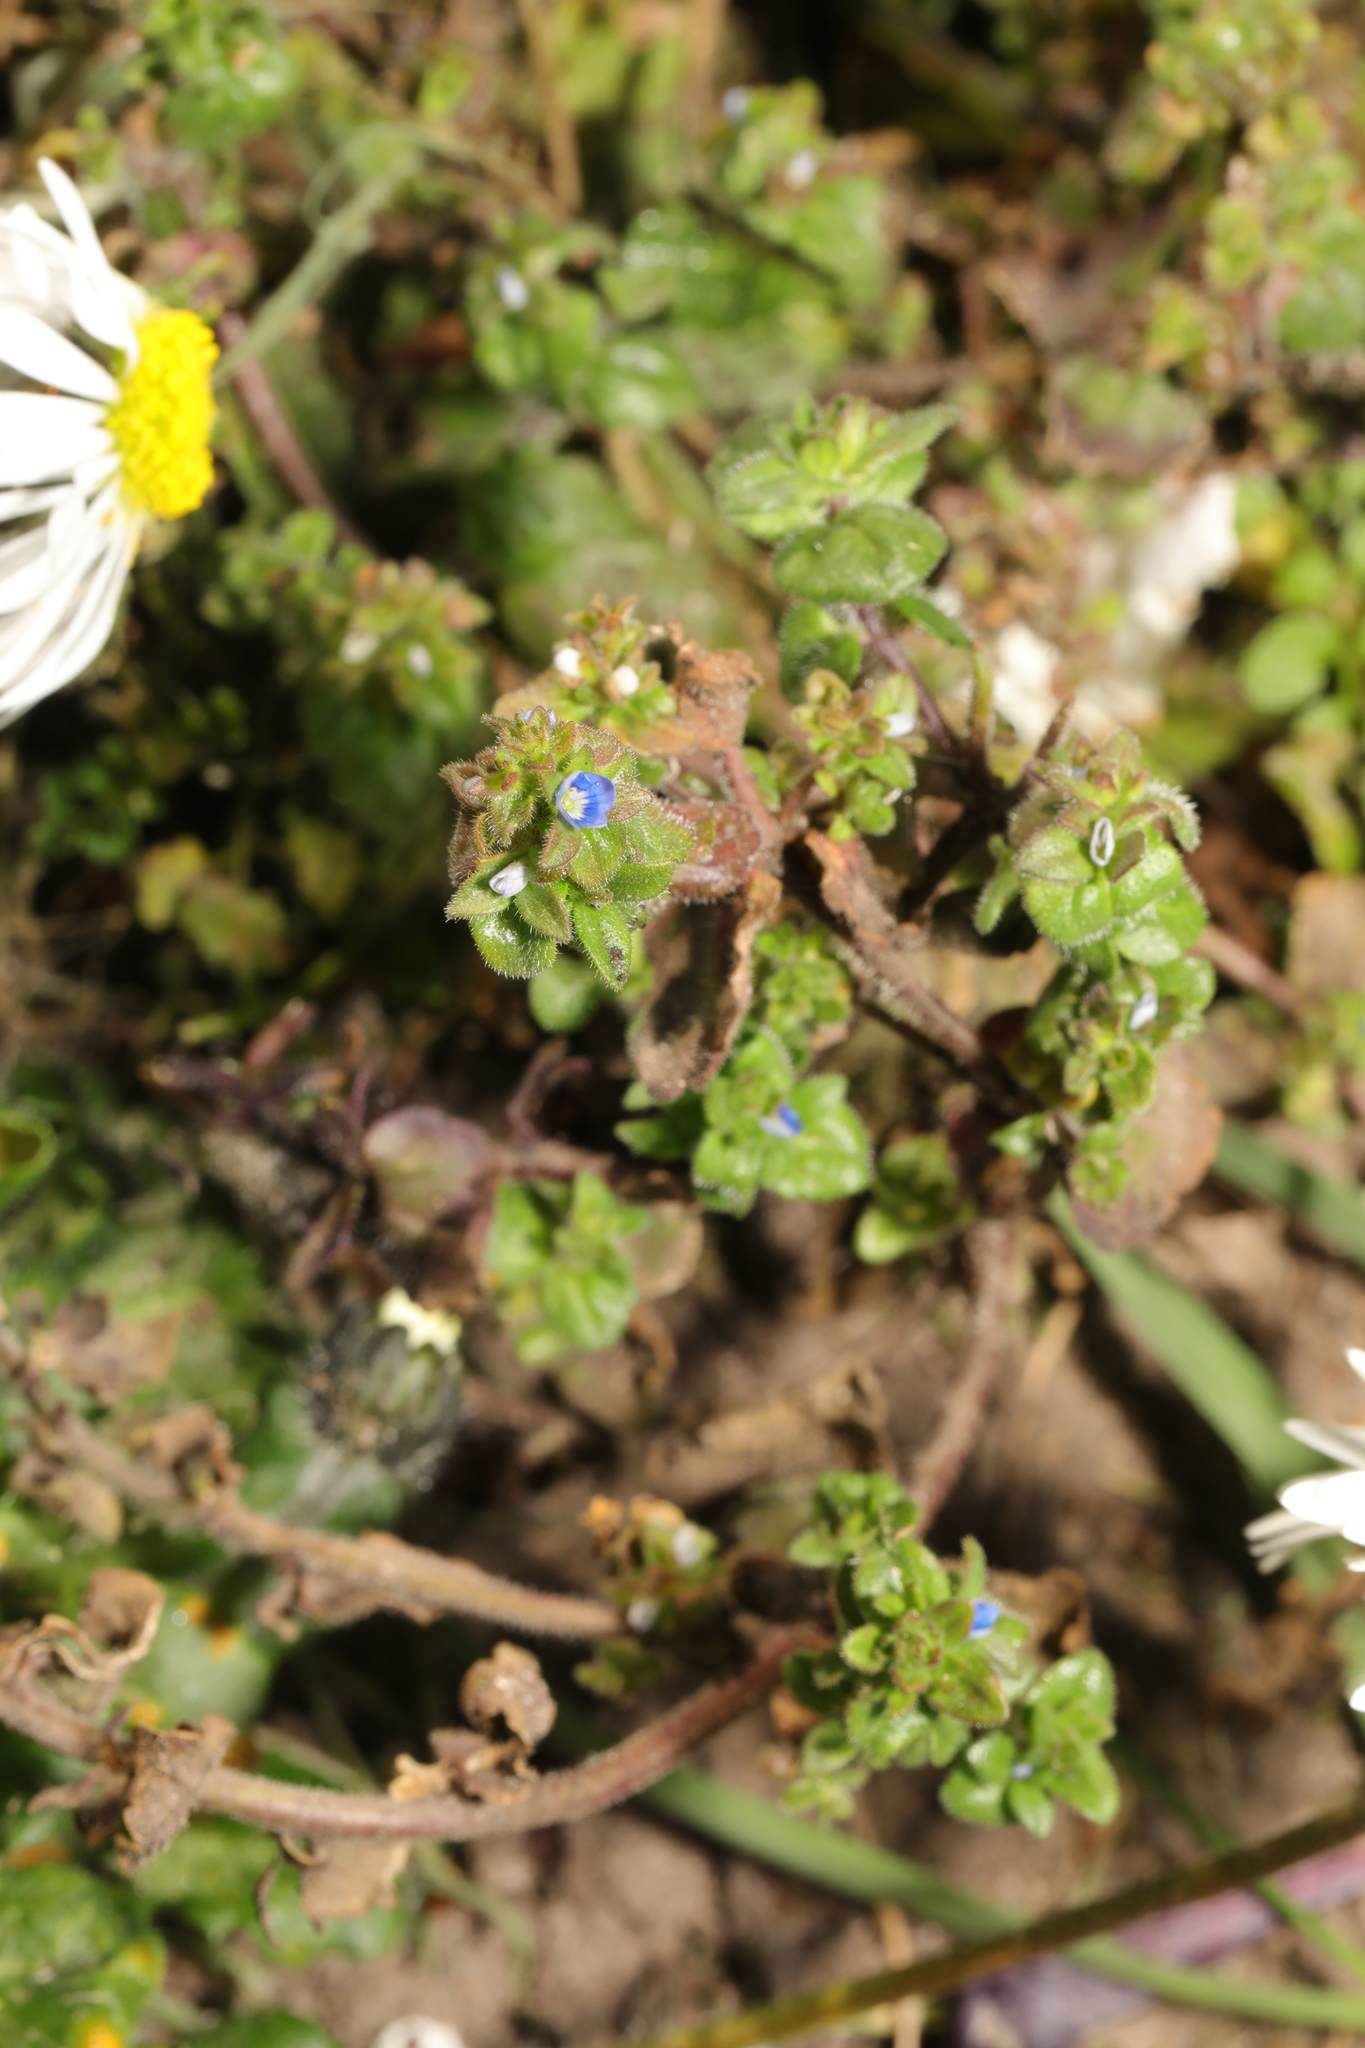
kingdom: Plantae
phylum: Tracheophyta
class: Magnoliopsida
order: Lamiales
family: Plantaginaceae
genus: Veronica
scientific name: Veronica arvensis
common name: Corn speedwell
